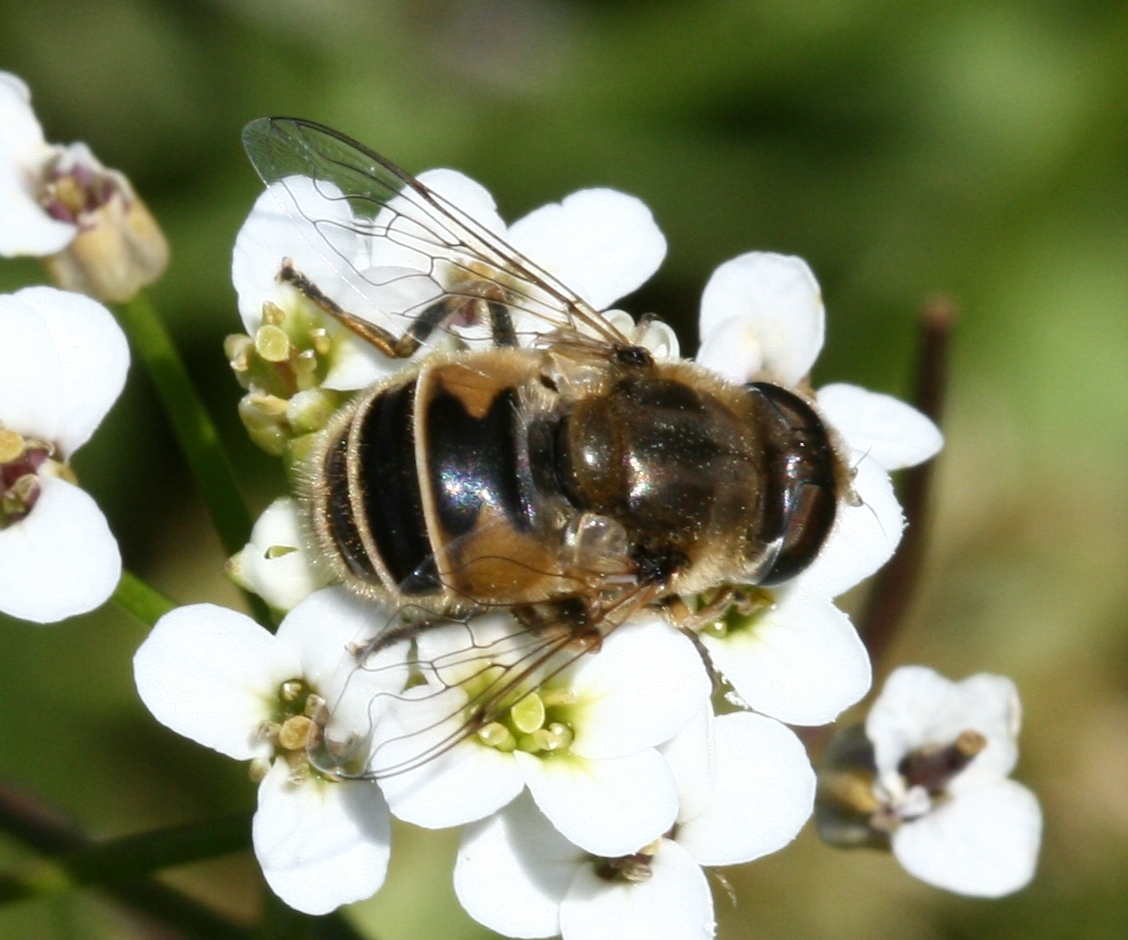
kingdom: Animalia
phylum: Arthropoda
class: Insecta
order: Diptera
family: Syrphidae
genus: Eristalis
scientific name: Eristalis arbustorum
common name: Hover fly
